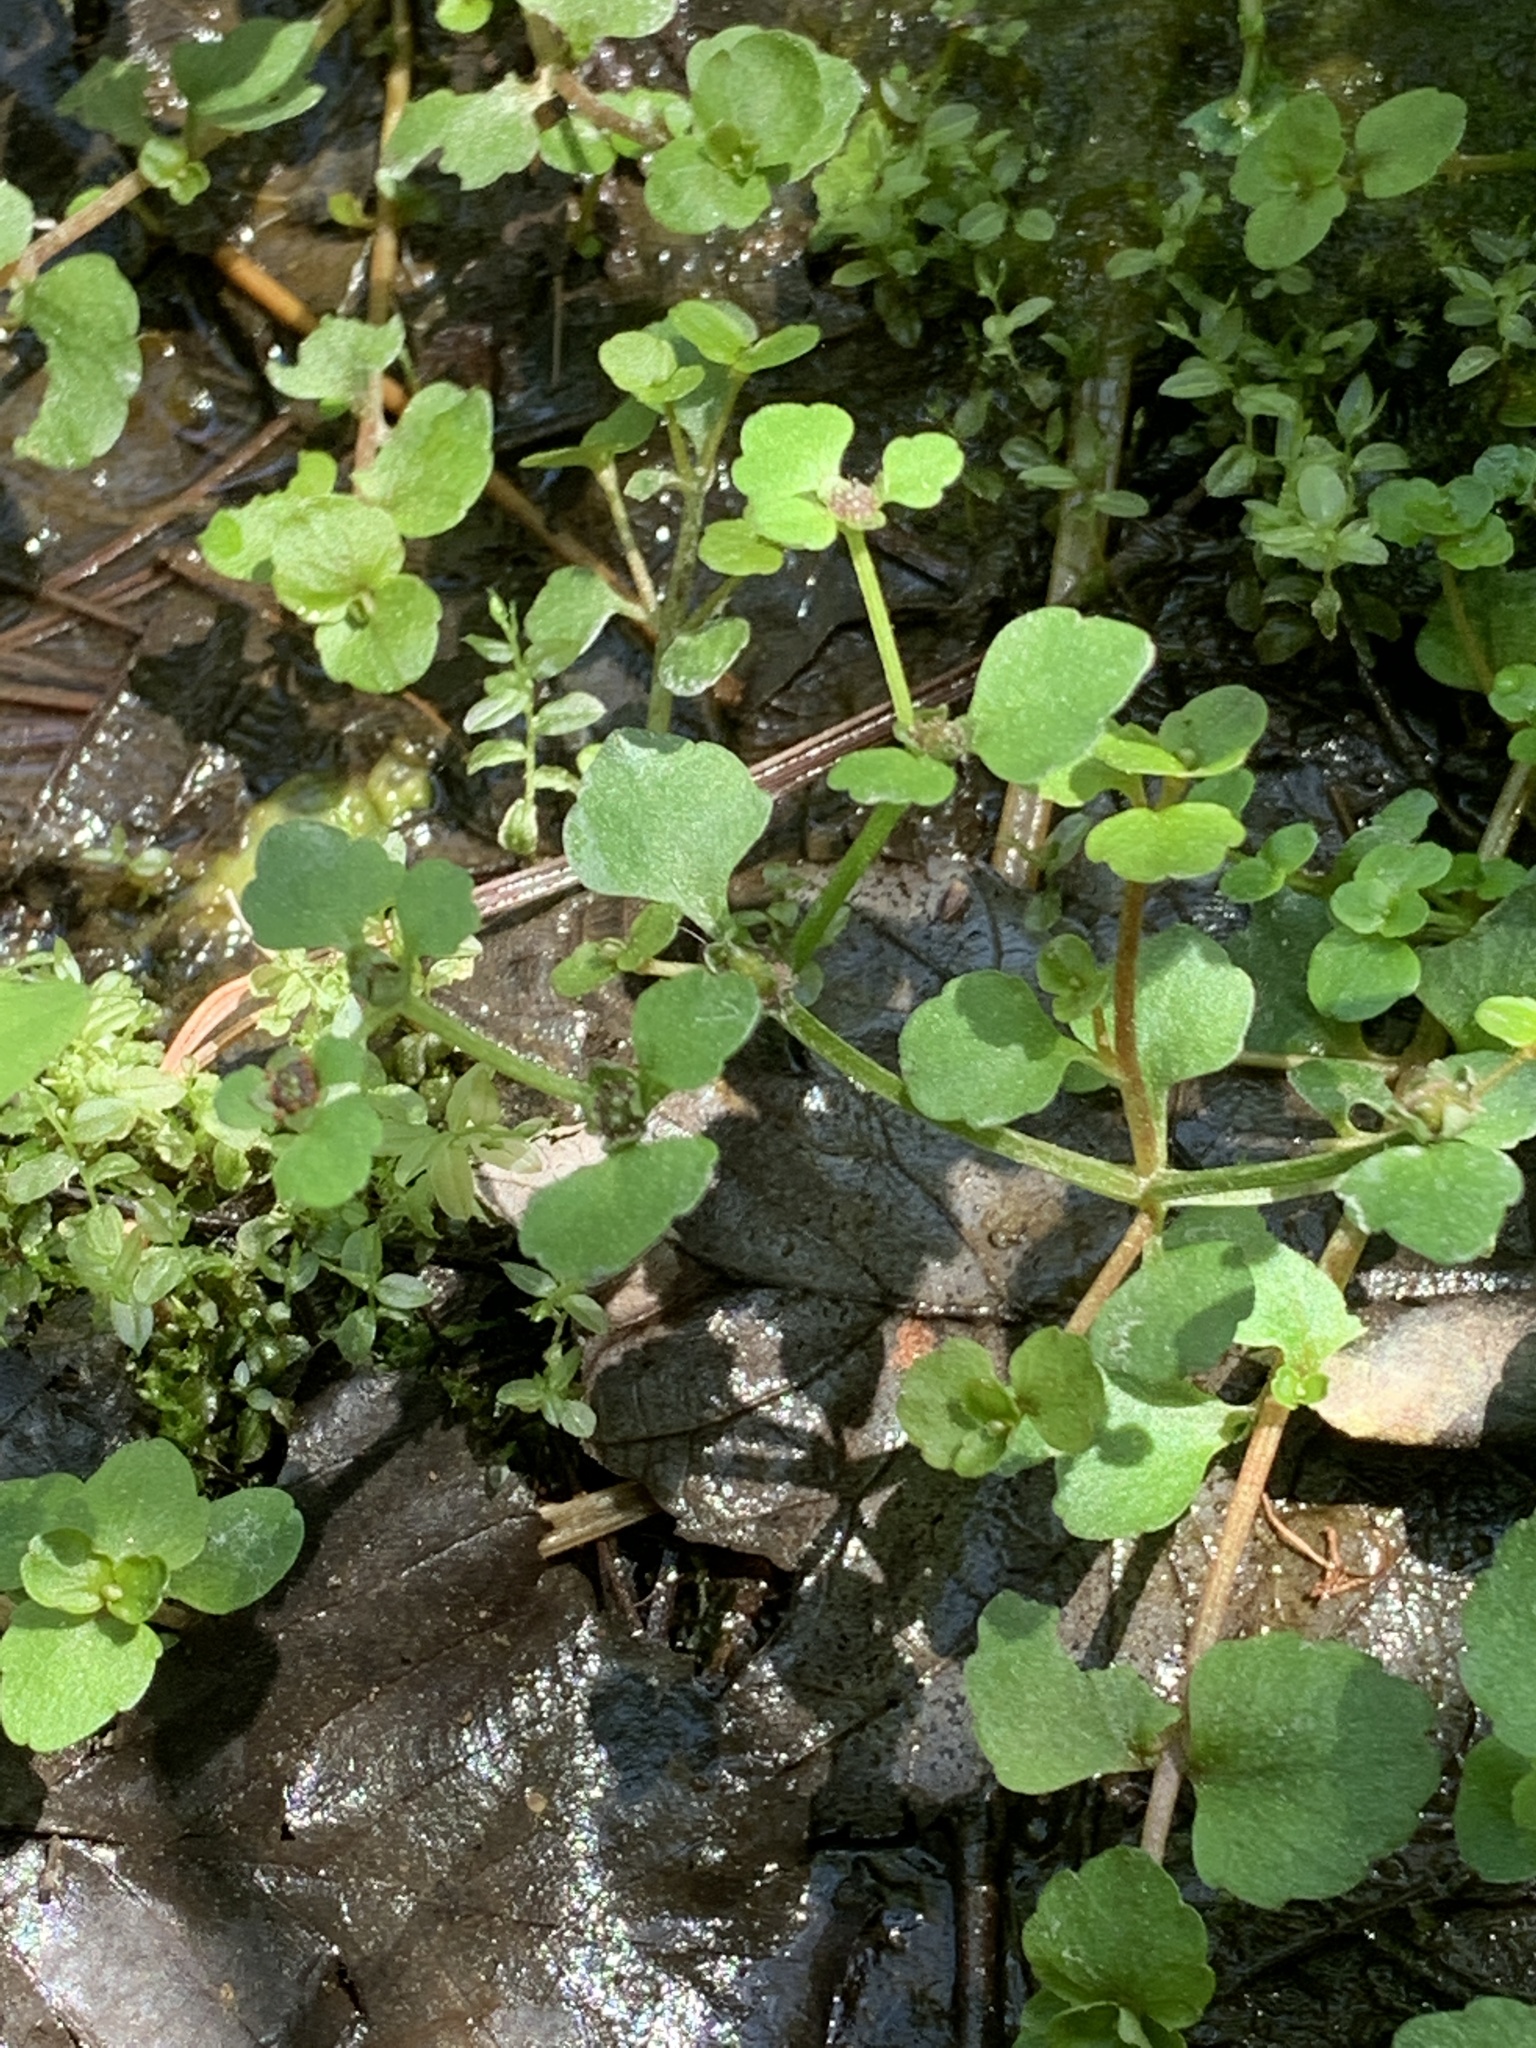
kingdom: Plantae
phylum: Tracheophyta
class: Magnoliopsida
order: Saxifragales
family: Saxifragaceae
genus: Chrysosplenium
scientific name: Chrysosplenium americanum
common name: American golden-saxifrage
